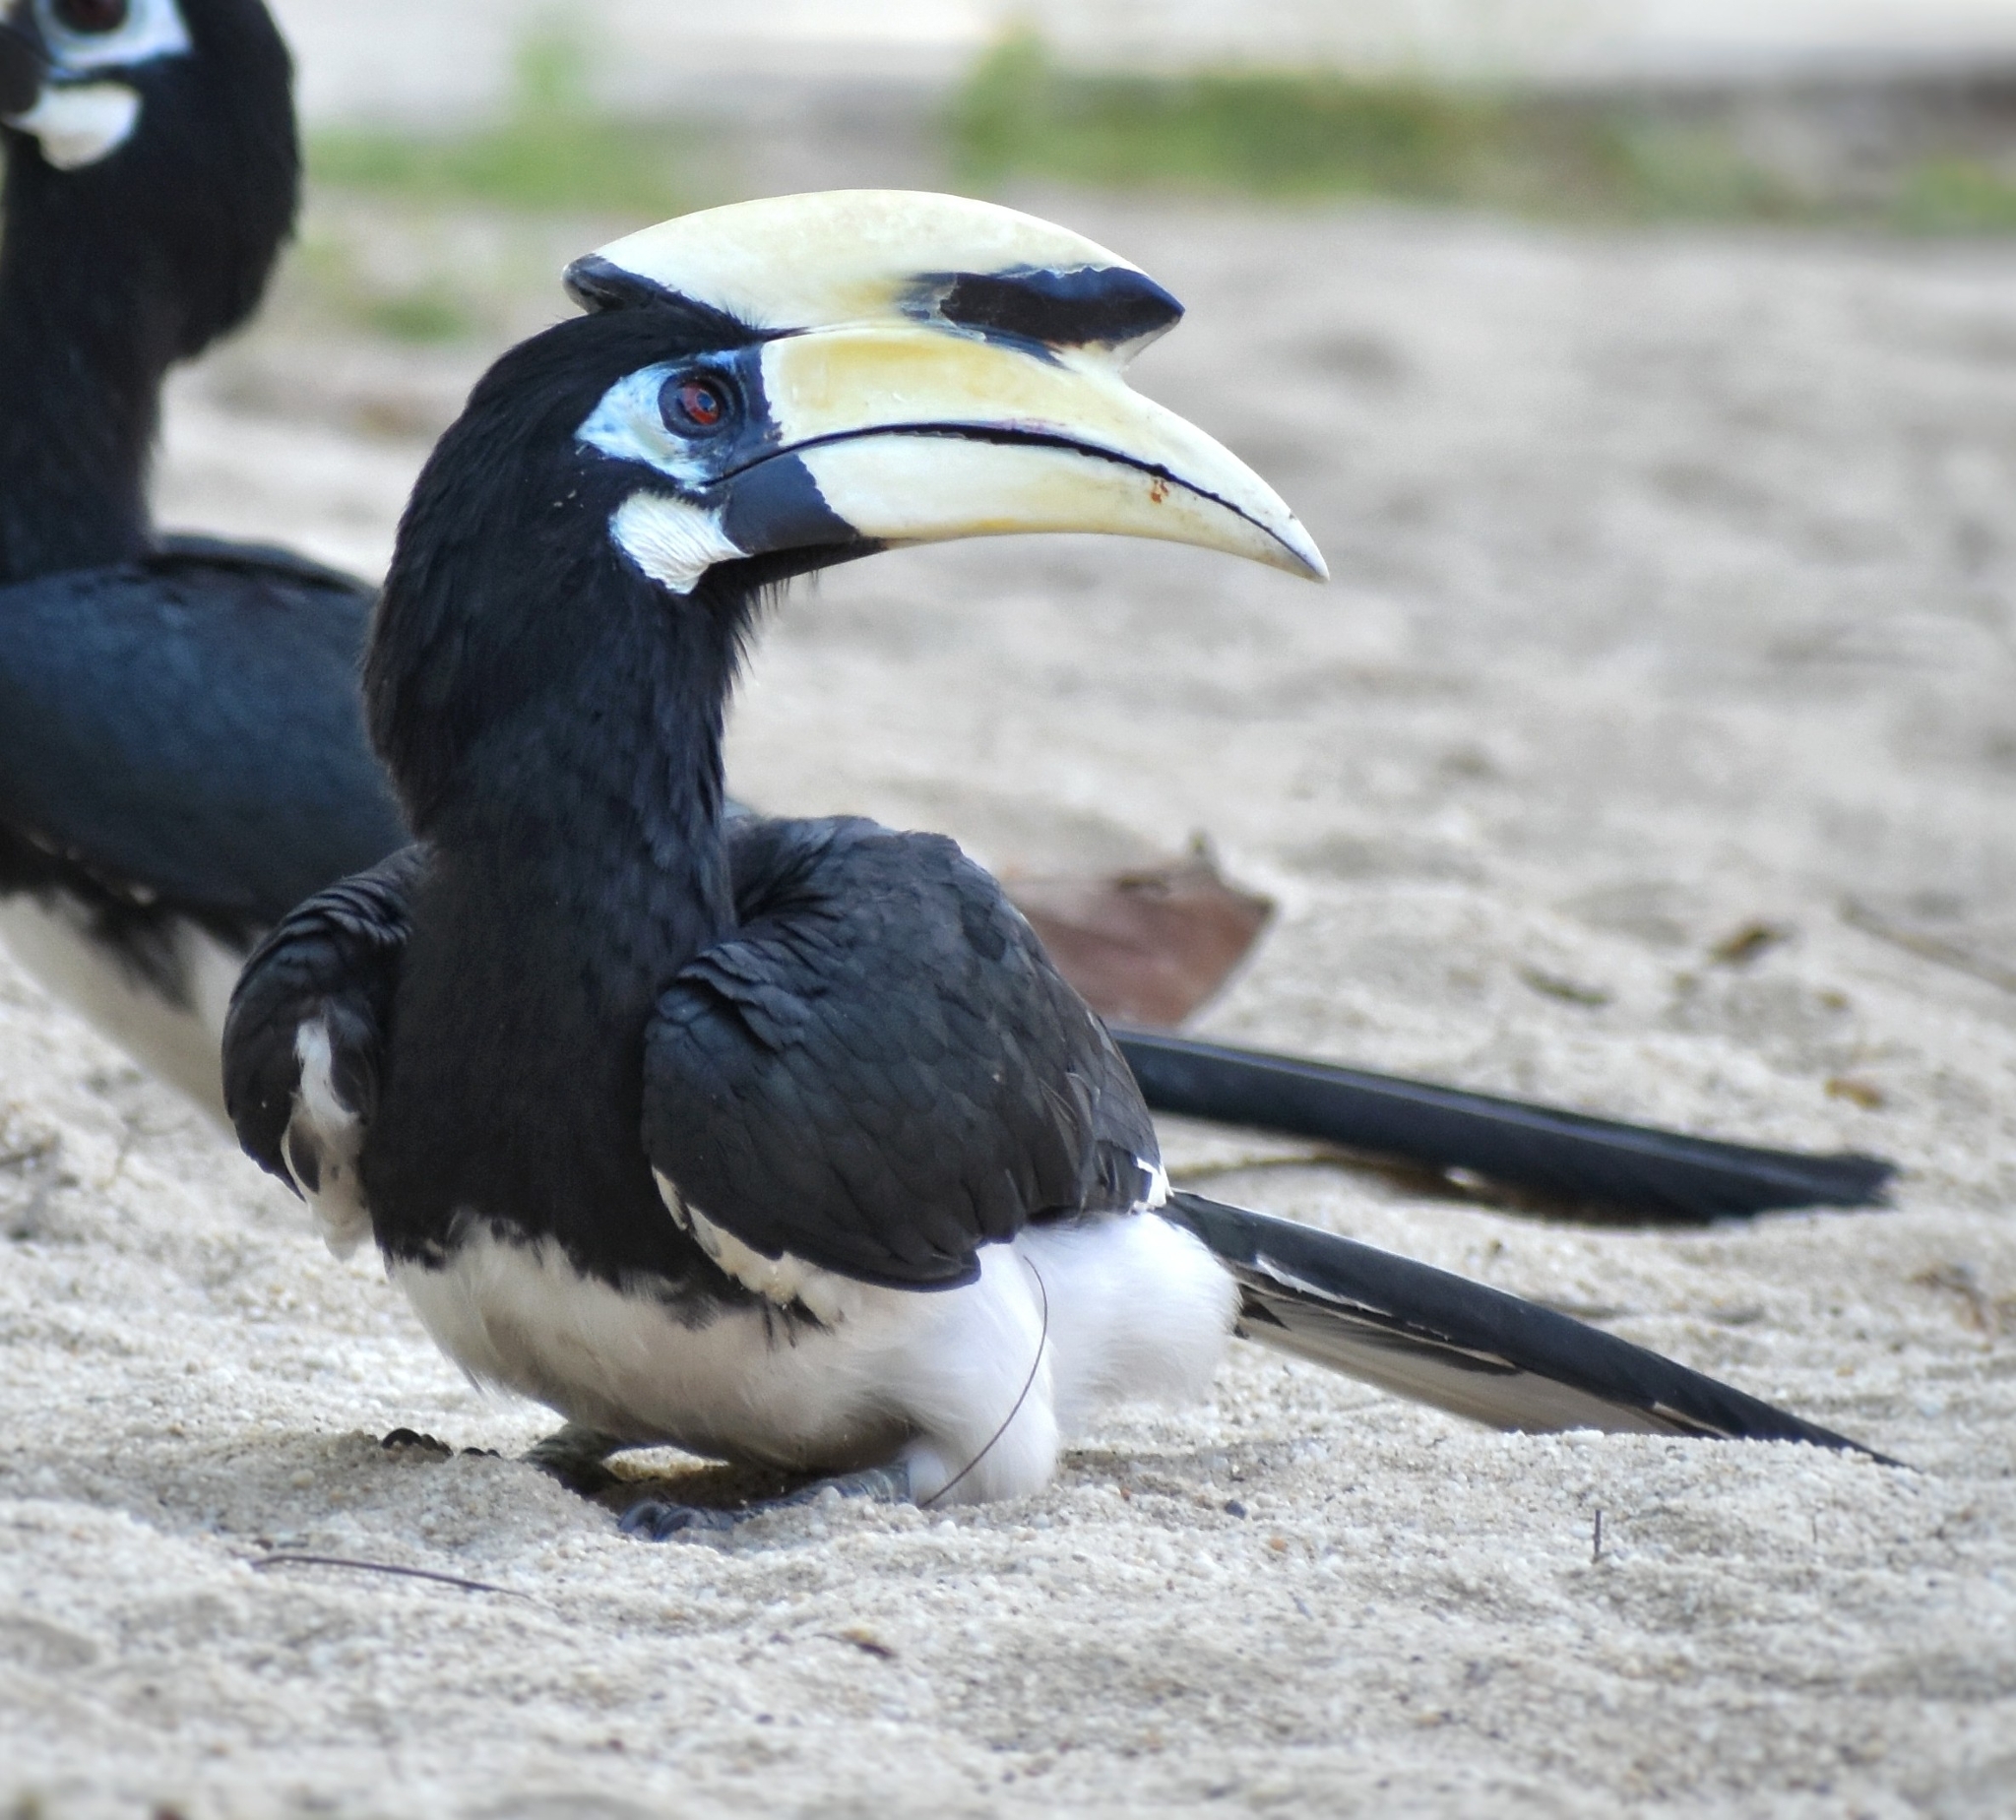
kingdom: Animalia
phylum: Chordata
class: Aves
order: Bucerotiformes
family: Bucerotidae
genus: Anthracoceros
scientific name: Anthracoceros albirostris
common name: Oriental pied-hornbill
